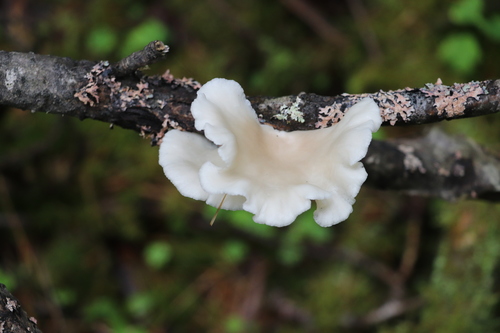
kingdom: Fungi
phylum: Basidiomycota
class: Agaricomycetes
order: Agaricales
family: Pleurotaceae
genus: Pleurotus
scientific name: Pleurotus pulmonarius
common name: Pale oyster
